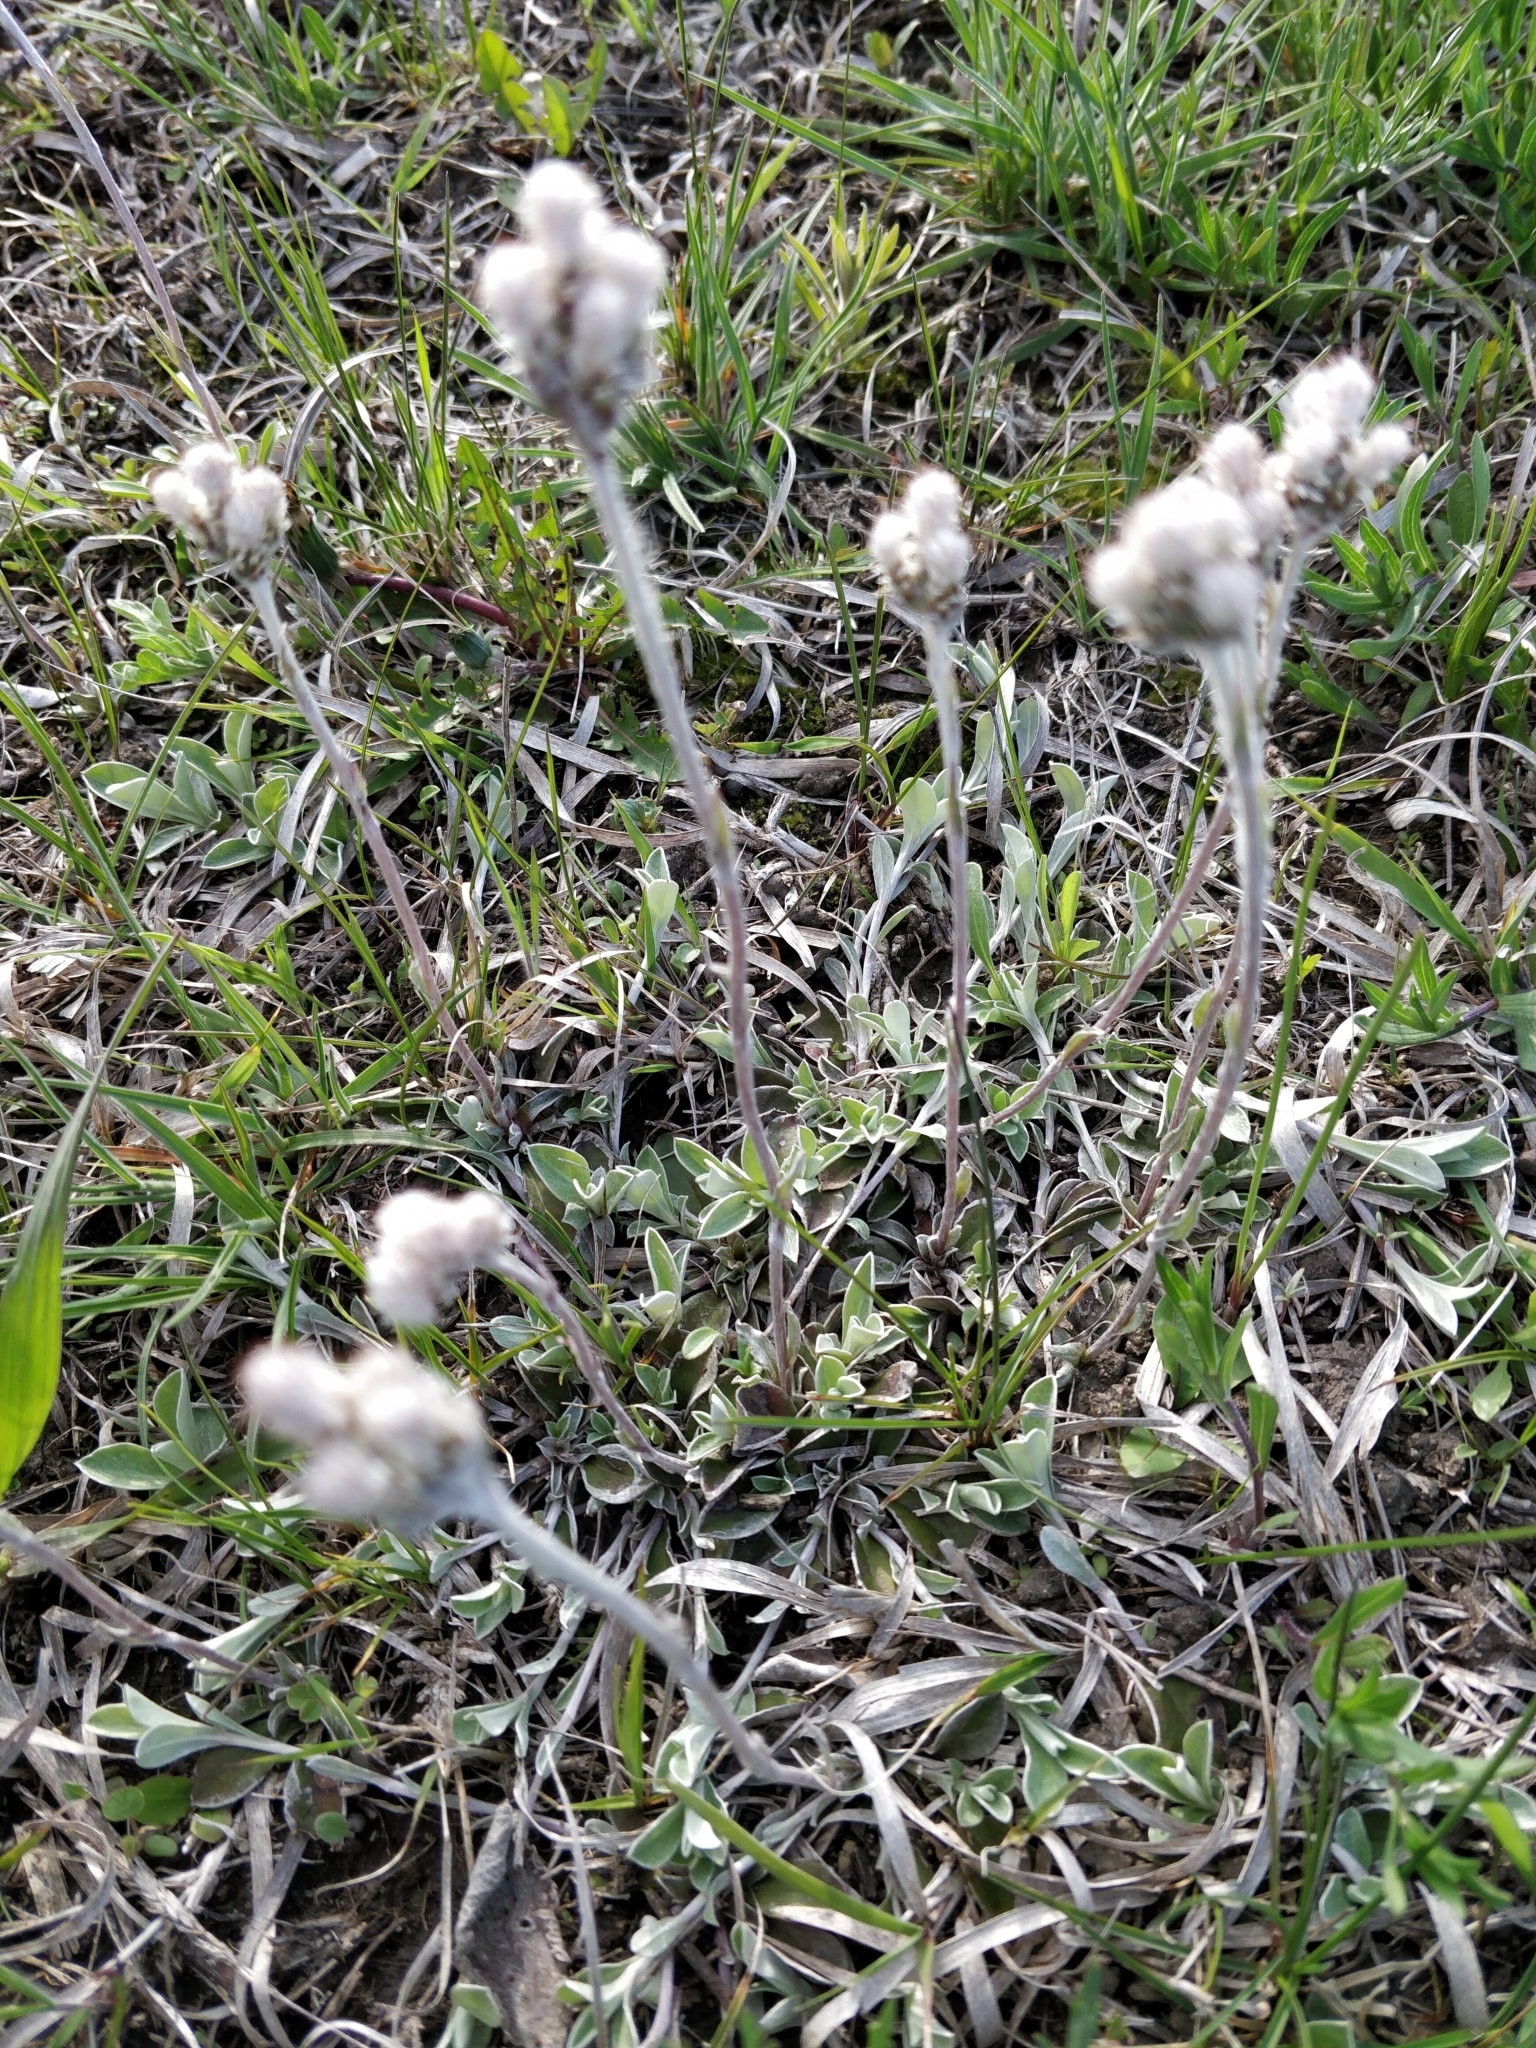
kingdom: Plantae
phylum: Tracheophyta
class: Magnoliopsida
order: Asterales
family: Asteraceae
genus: Antennaria
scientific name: Antennaria neglecta
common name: Field pussytoes
